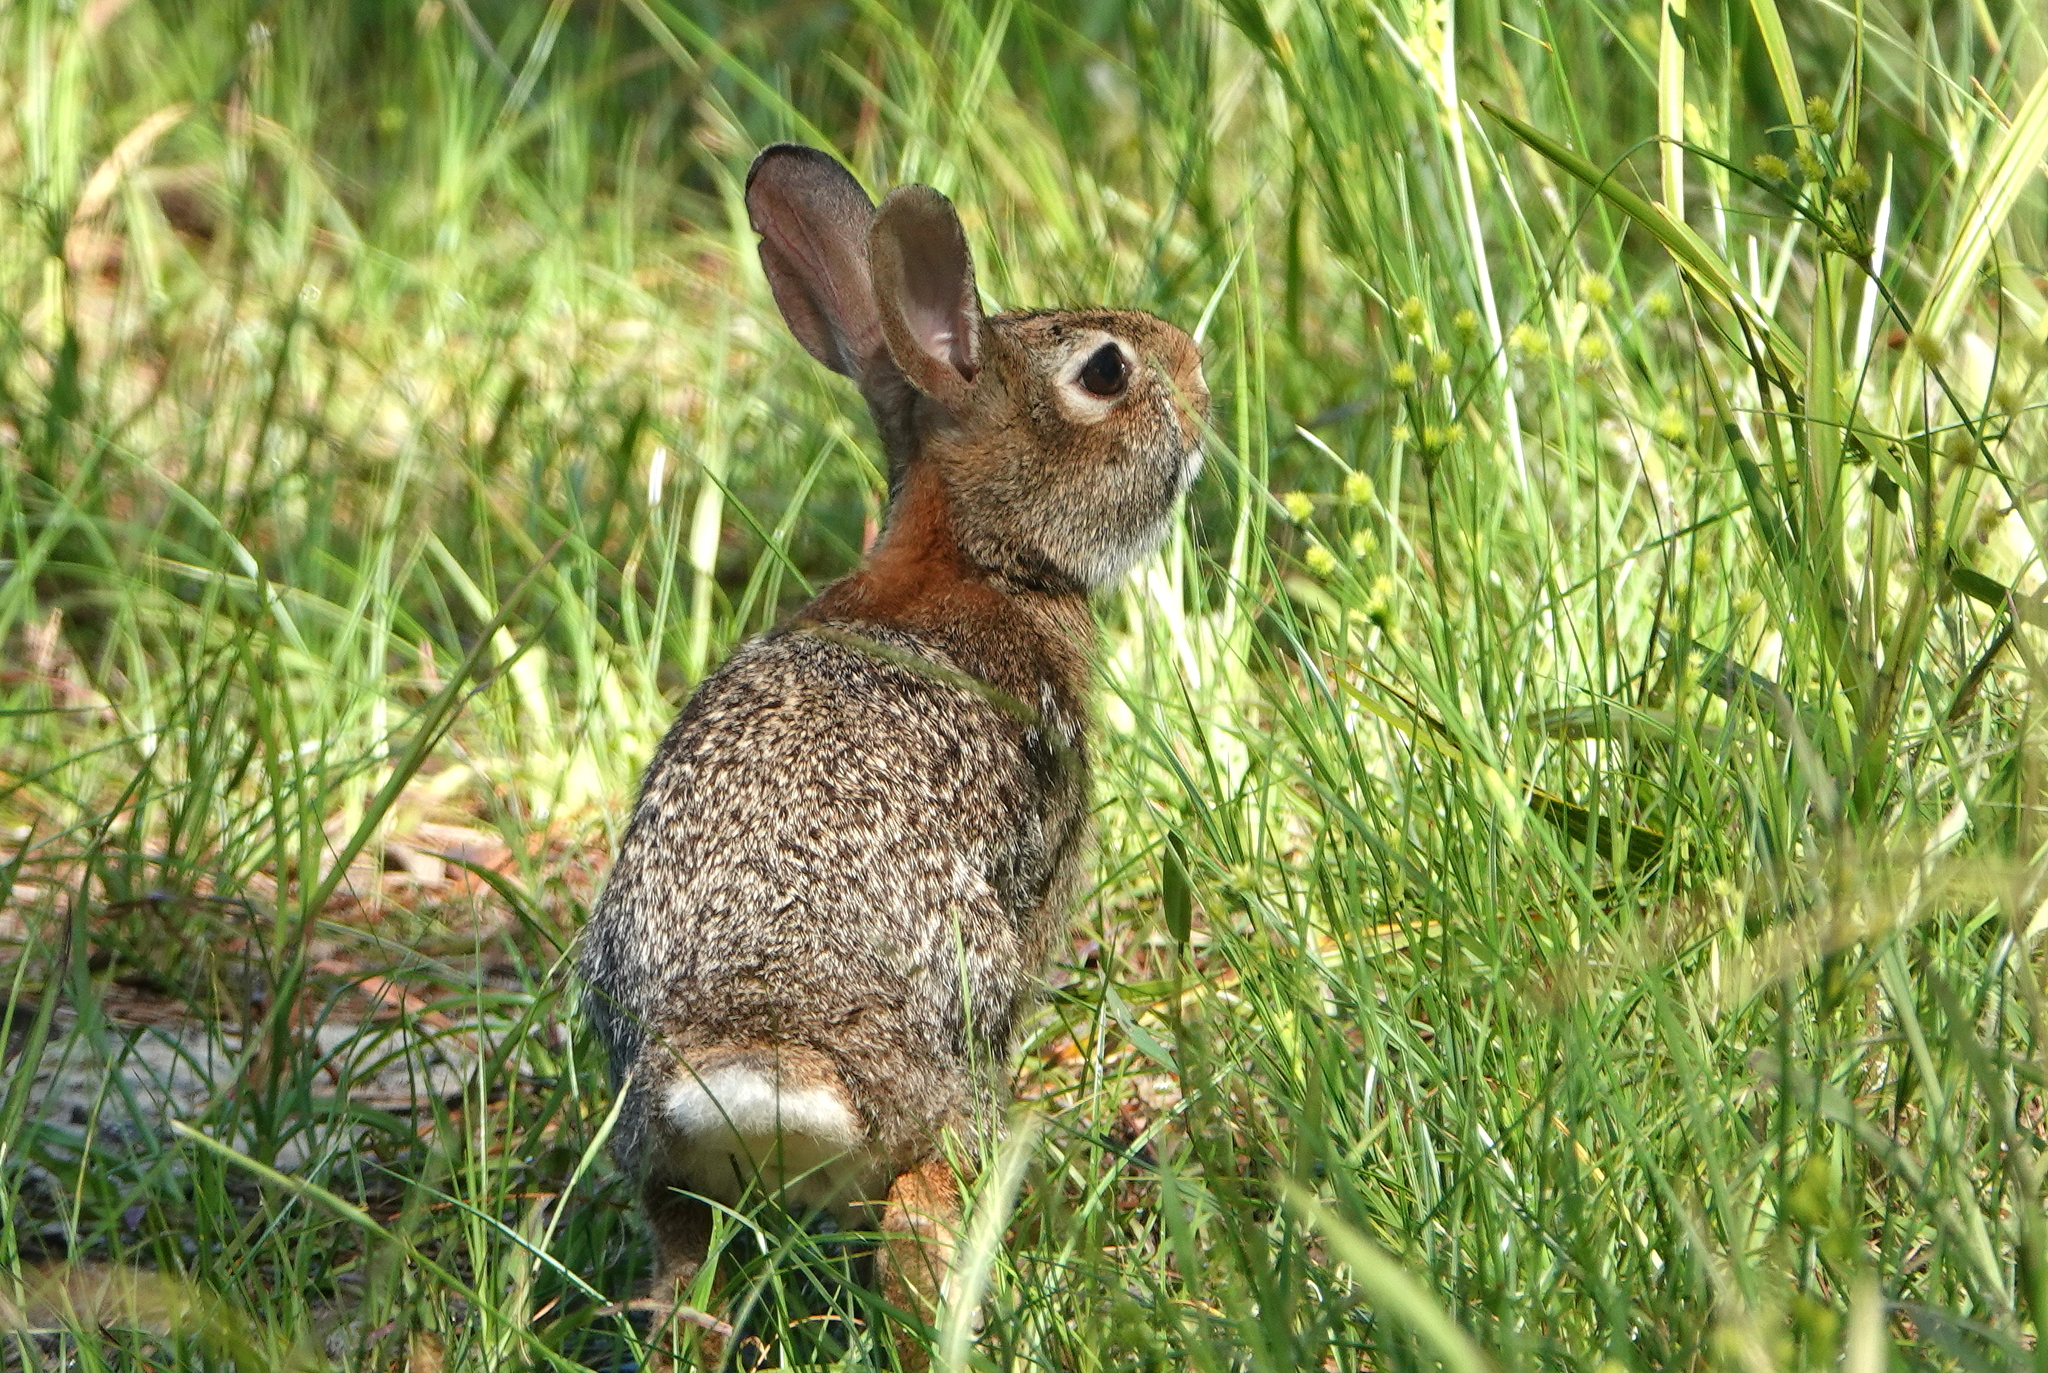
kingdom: Animalia
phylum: Chordata
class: Mammalia
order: Lagomorpha
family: Leporidae
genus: Sylvilagus
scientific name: Sylvilagus floridanus
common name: Eastern cottontail
